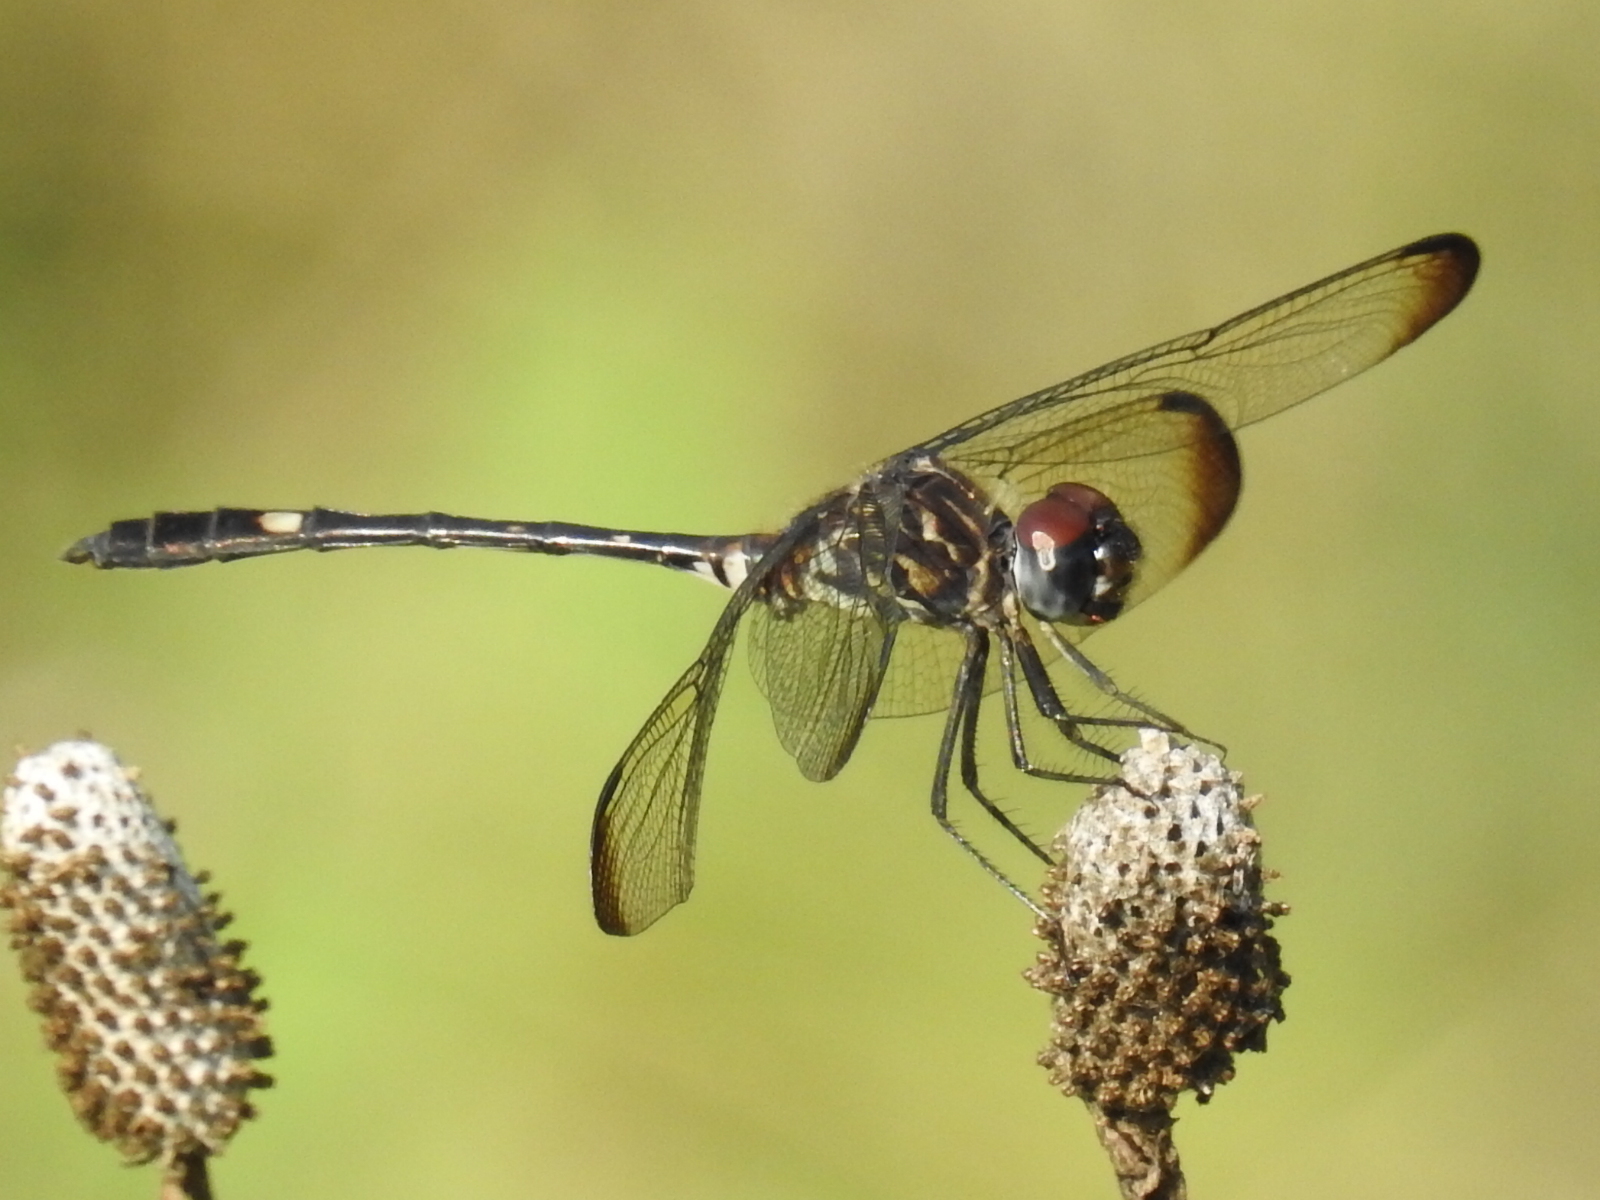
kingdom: Animalia
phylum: Arthropoda
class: Insecta
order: Odonata
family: Libellulidae
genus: Dythemis
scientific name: Dythemis velox
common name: Swift setwing
